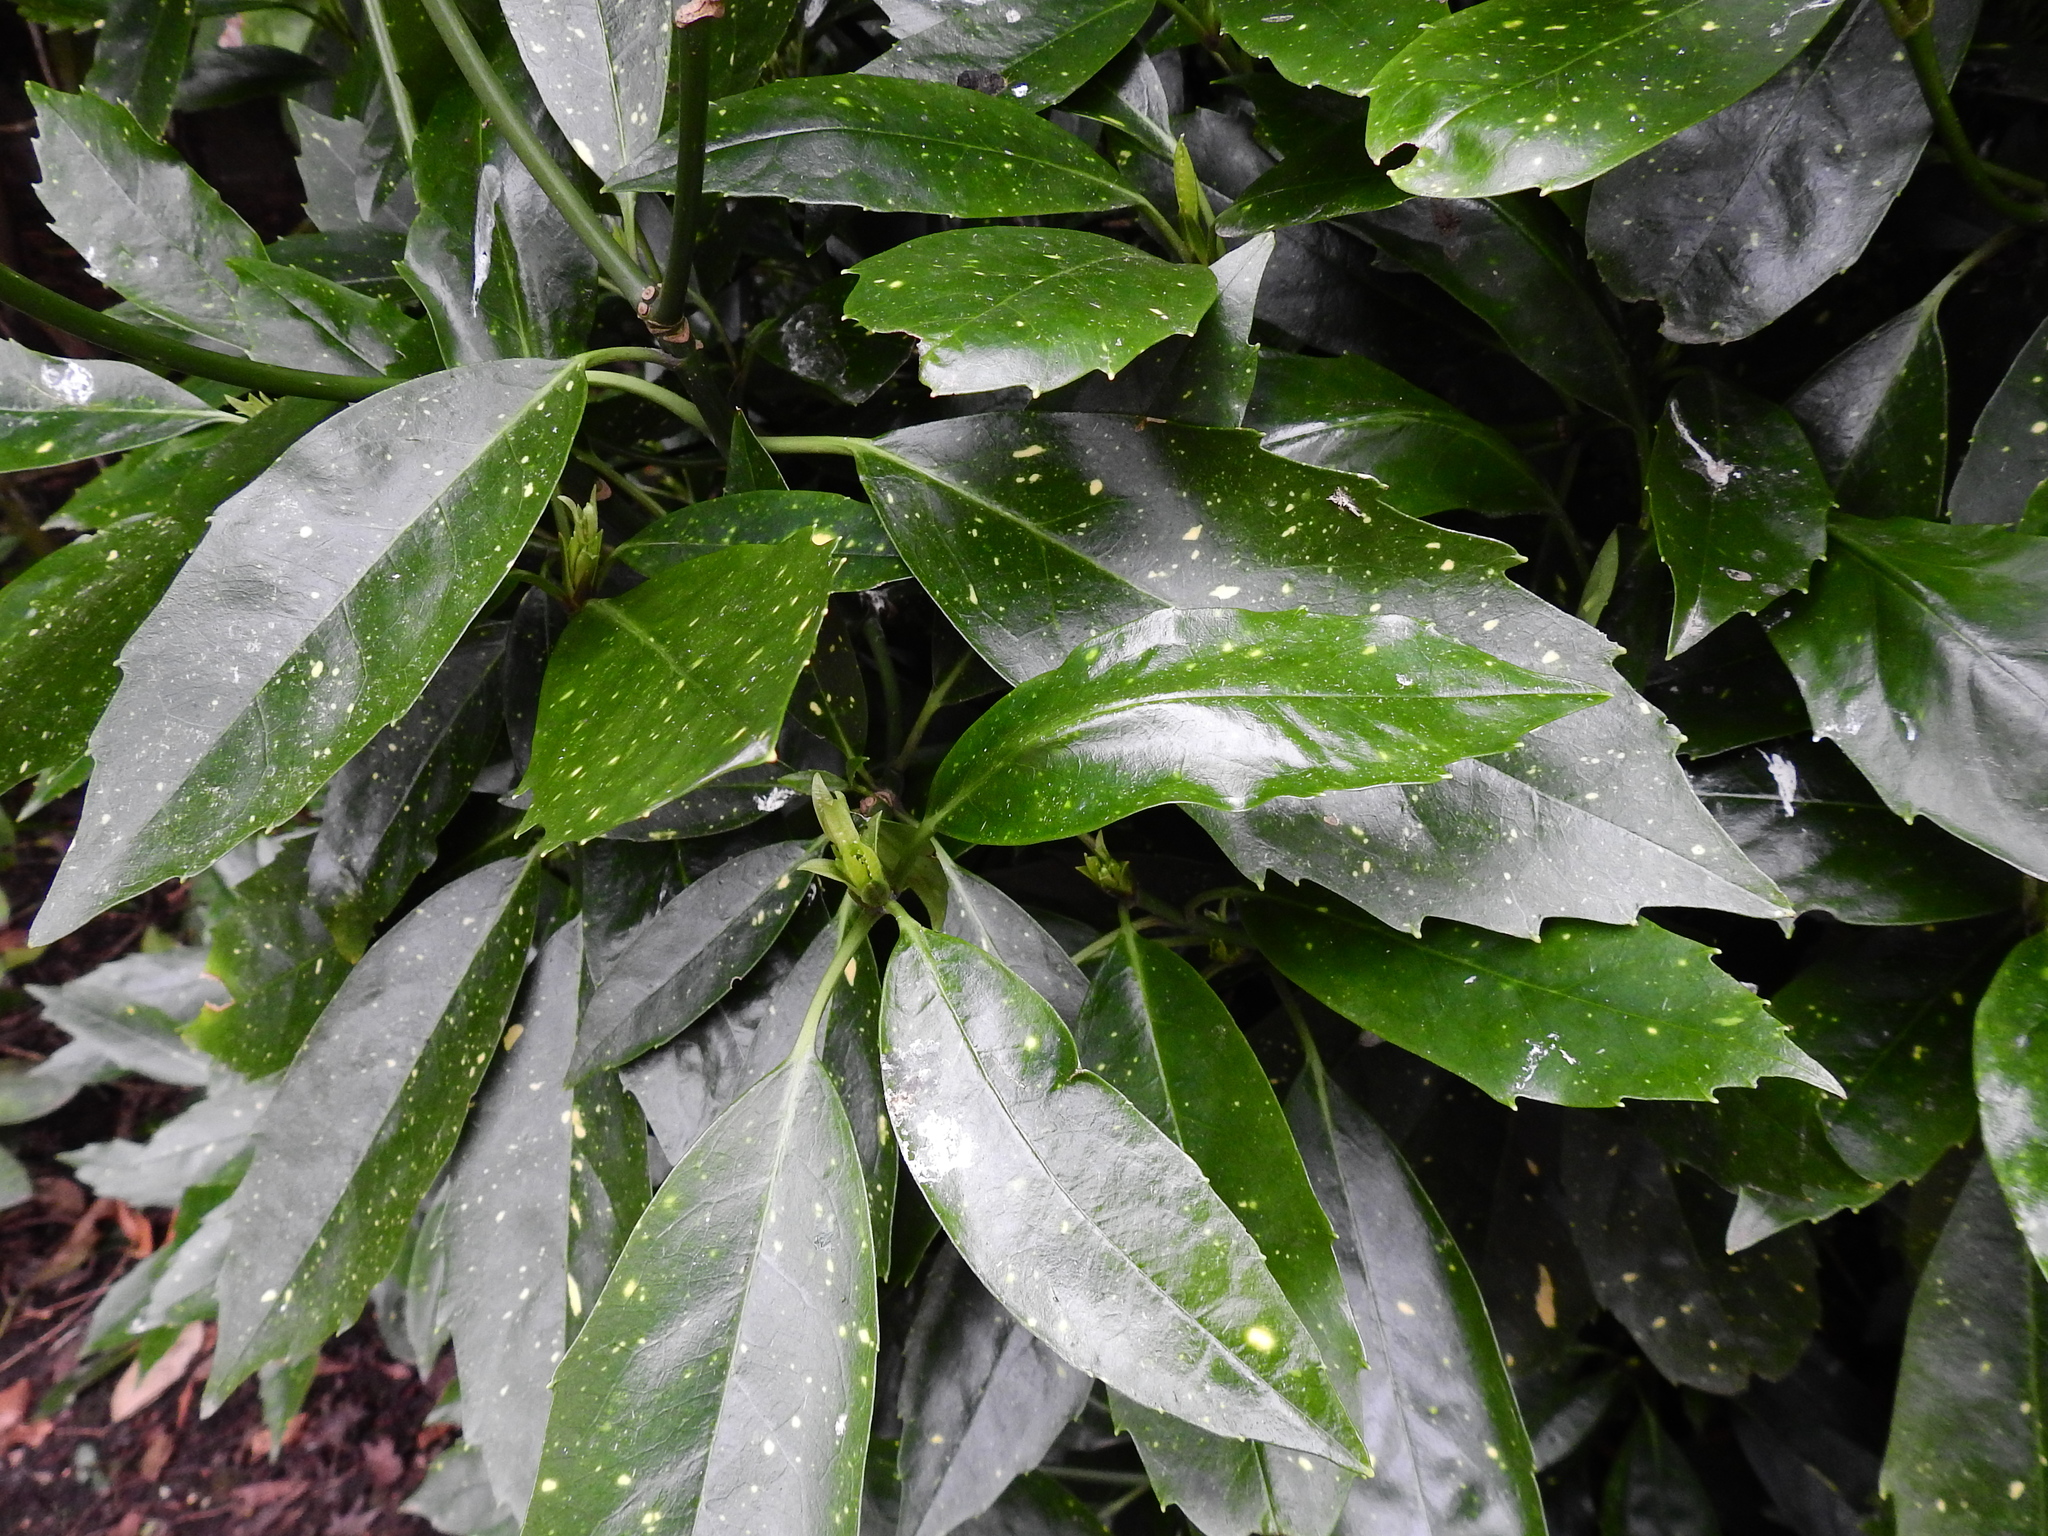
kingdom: Plantae
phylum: Tracheophyta
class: Magnoliopsida
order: Garryales
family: Garryaceae
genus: Aucuba
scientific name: Aucuba japonica
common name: Spotted-laurel
